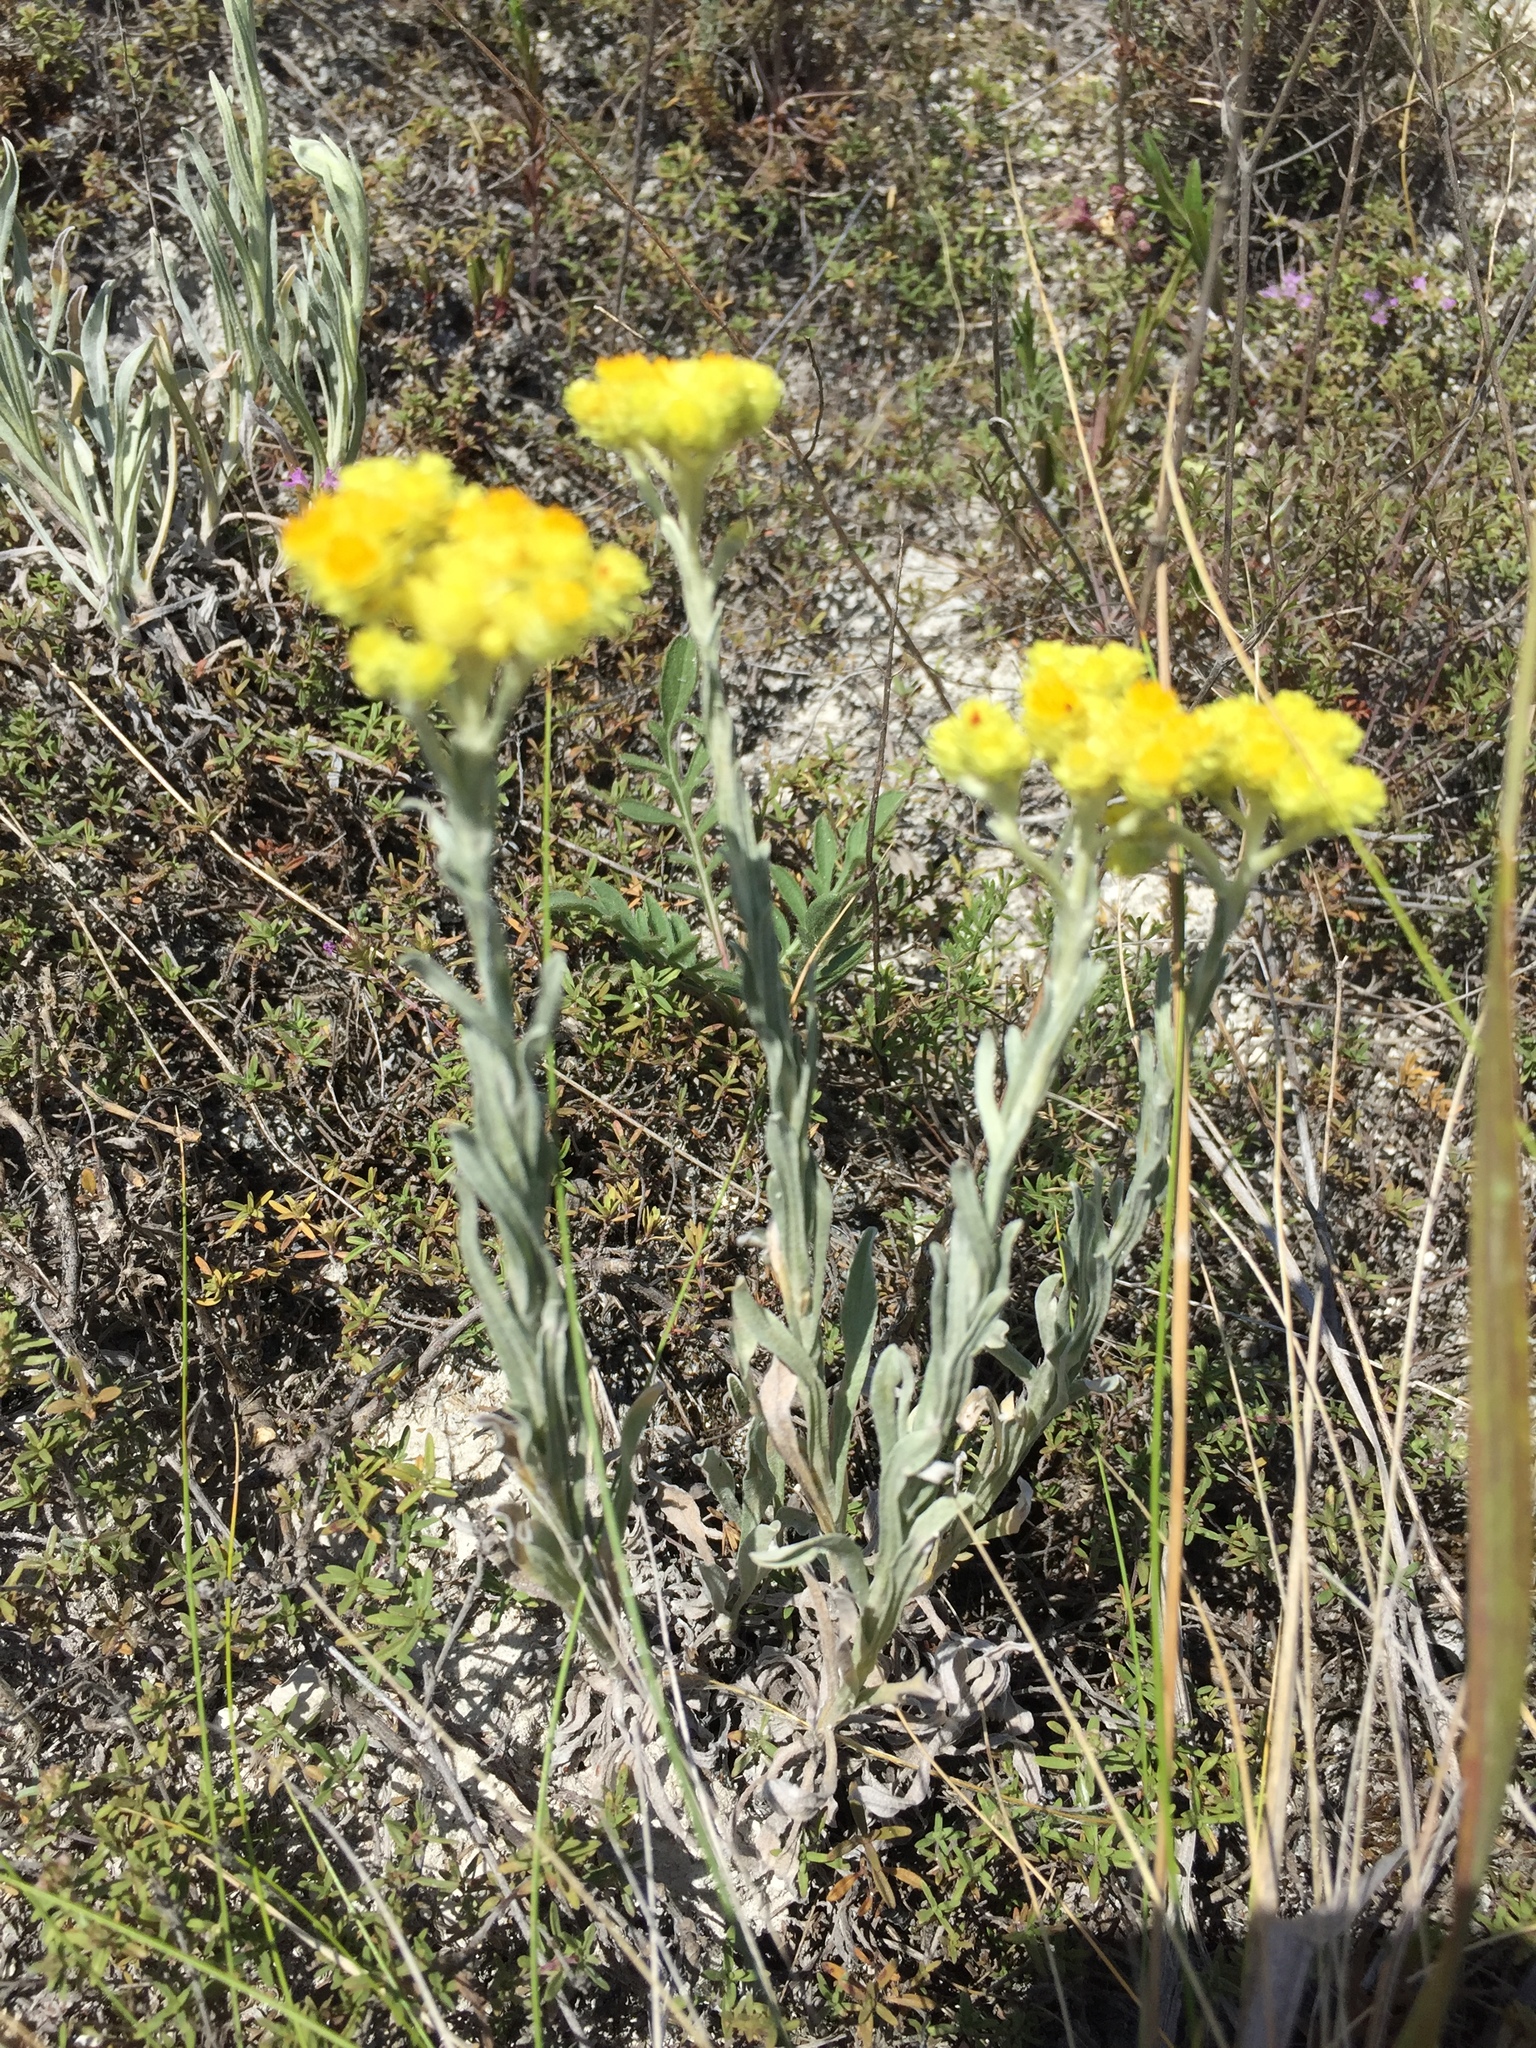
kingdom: Plantae
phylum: Tracheophyta
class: Magnoliopsida
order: Asterales
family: Asteraceae
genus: Helichrysum
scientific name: Helichrysum arenarium
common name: Strawflower
